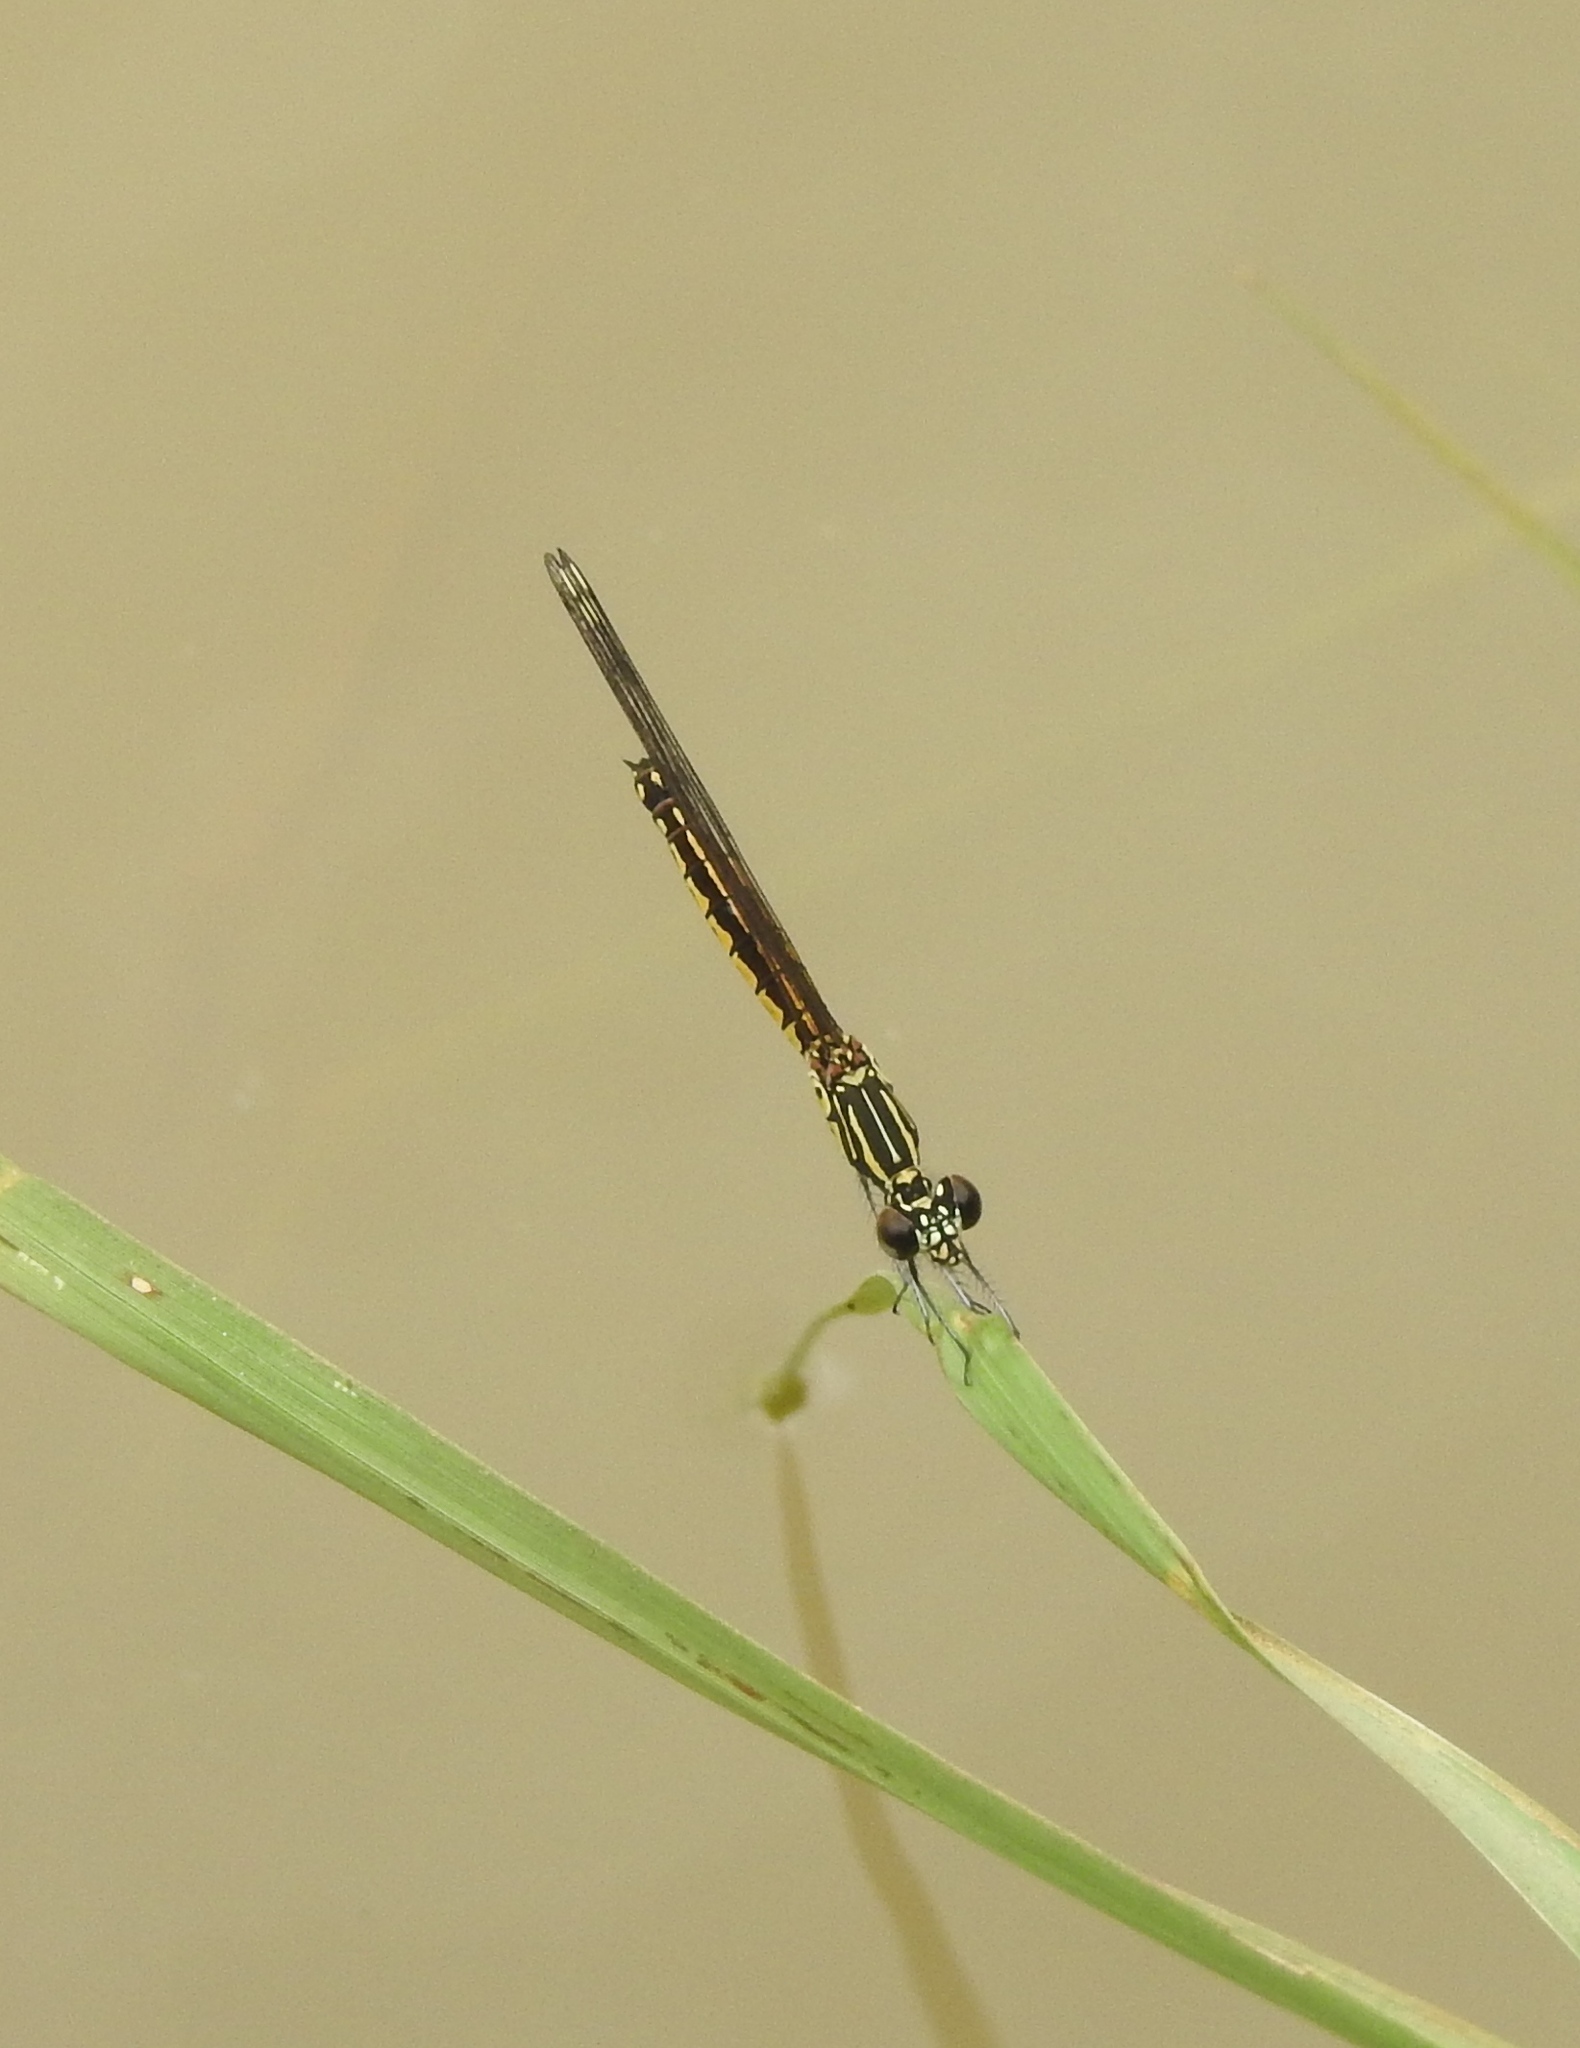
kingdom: Animalia
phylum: Arthropoda
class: Insecta
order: Odonata
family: Chlorocyphidae
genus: Libellago
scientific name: Libellago indica
